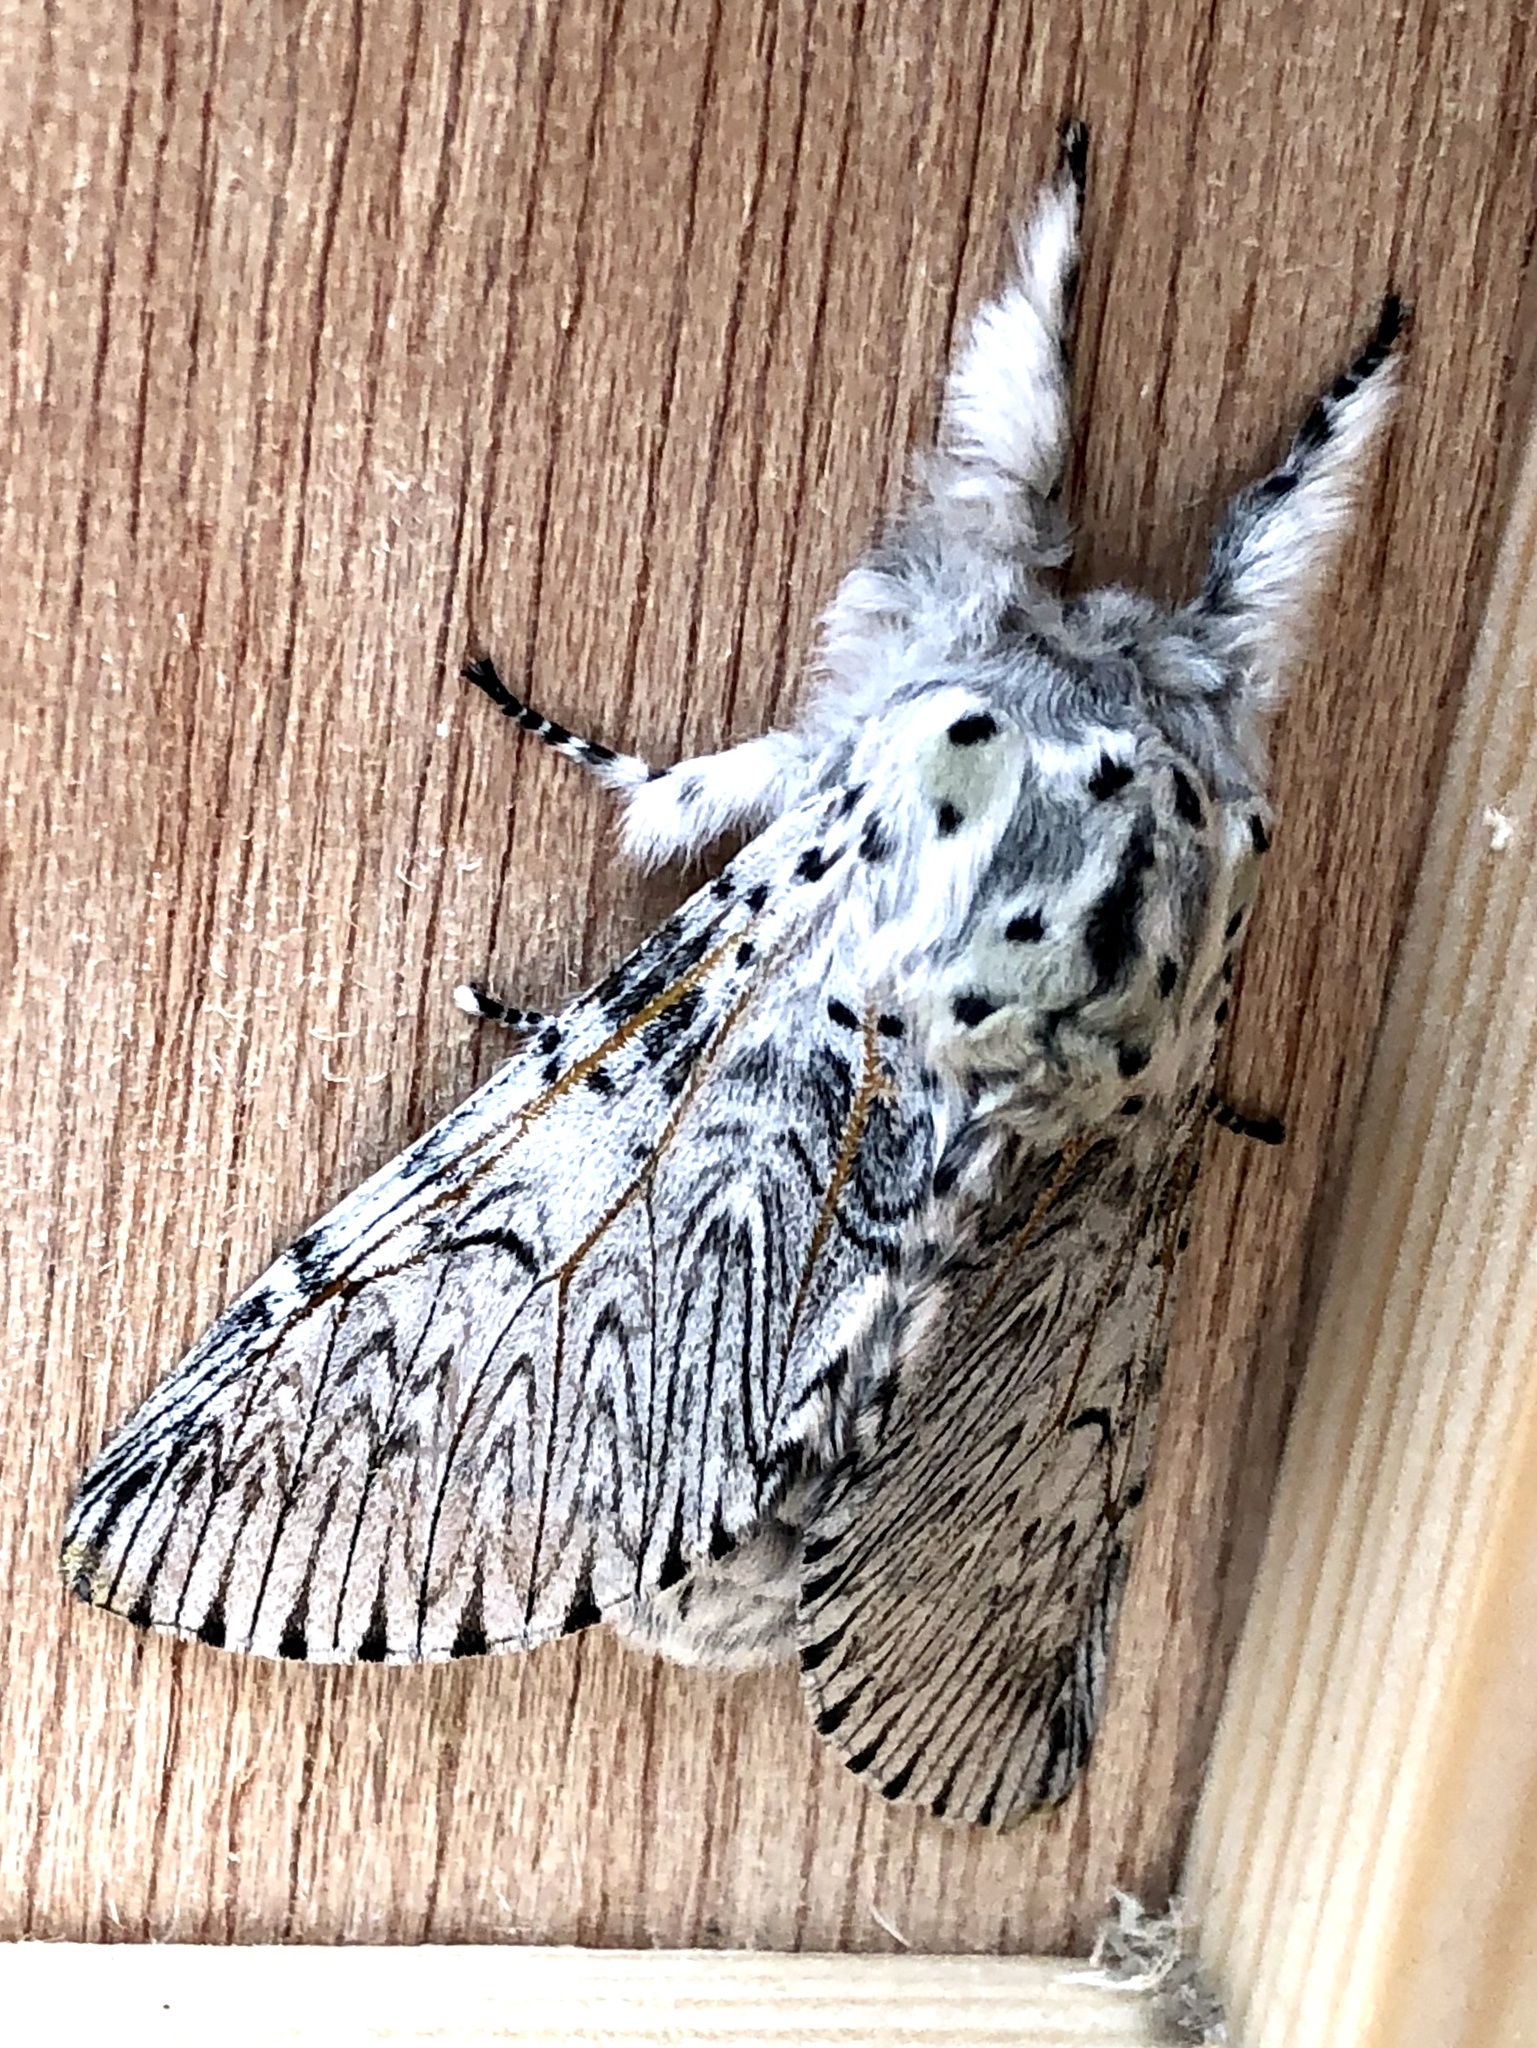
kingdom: Animalia
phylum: Arthropoda
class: Insecta
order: Lepidoptera
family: Notodontidae
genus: Cerura
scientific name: Cerura vinula
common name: Puss moth
